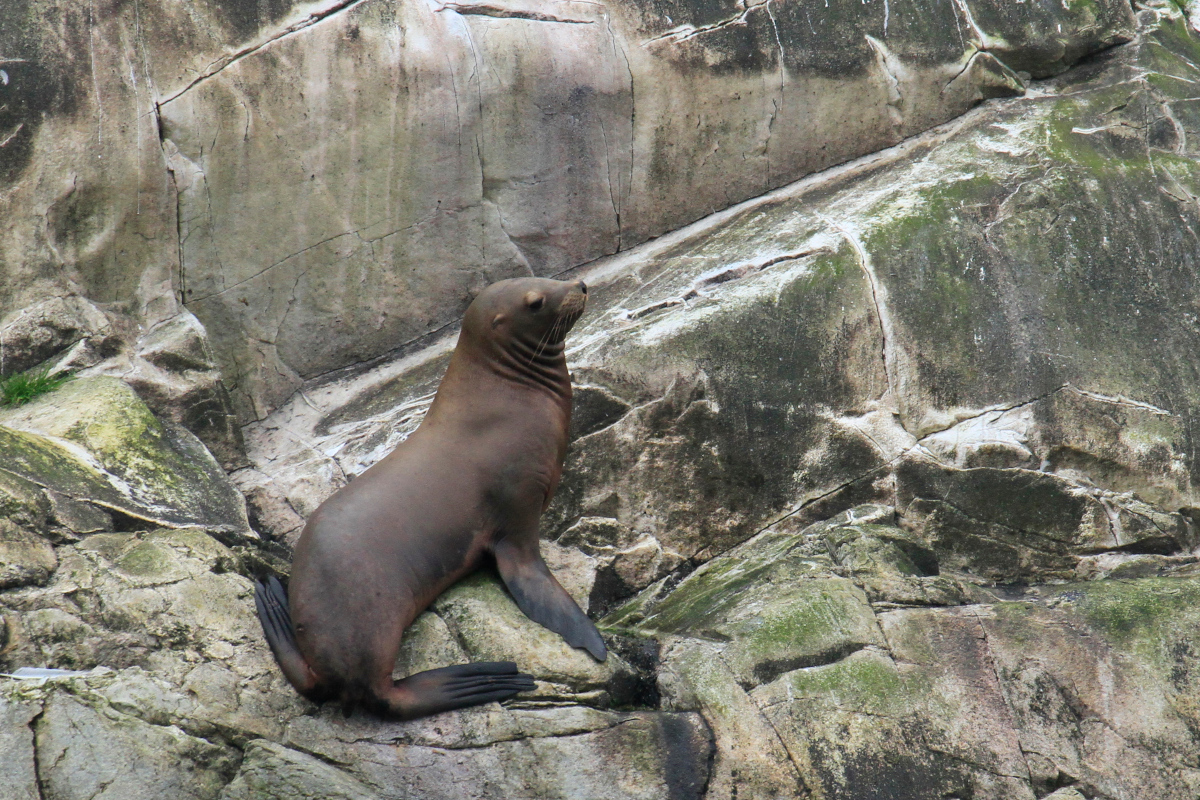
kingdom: Animalia
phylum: Chordata
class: Mammalia
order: Carnivora
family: Otariidae
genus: Eumetopias
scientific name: Eumetopias jubatus
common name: Steller sea lion
